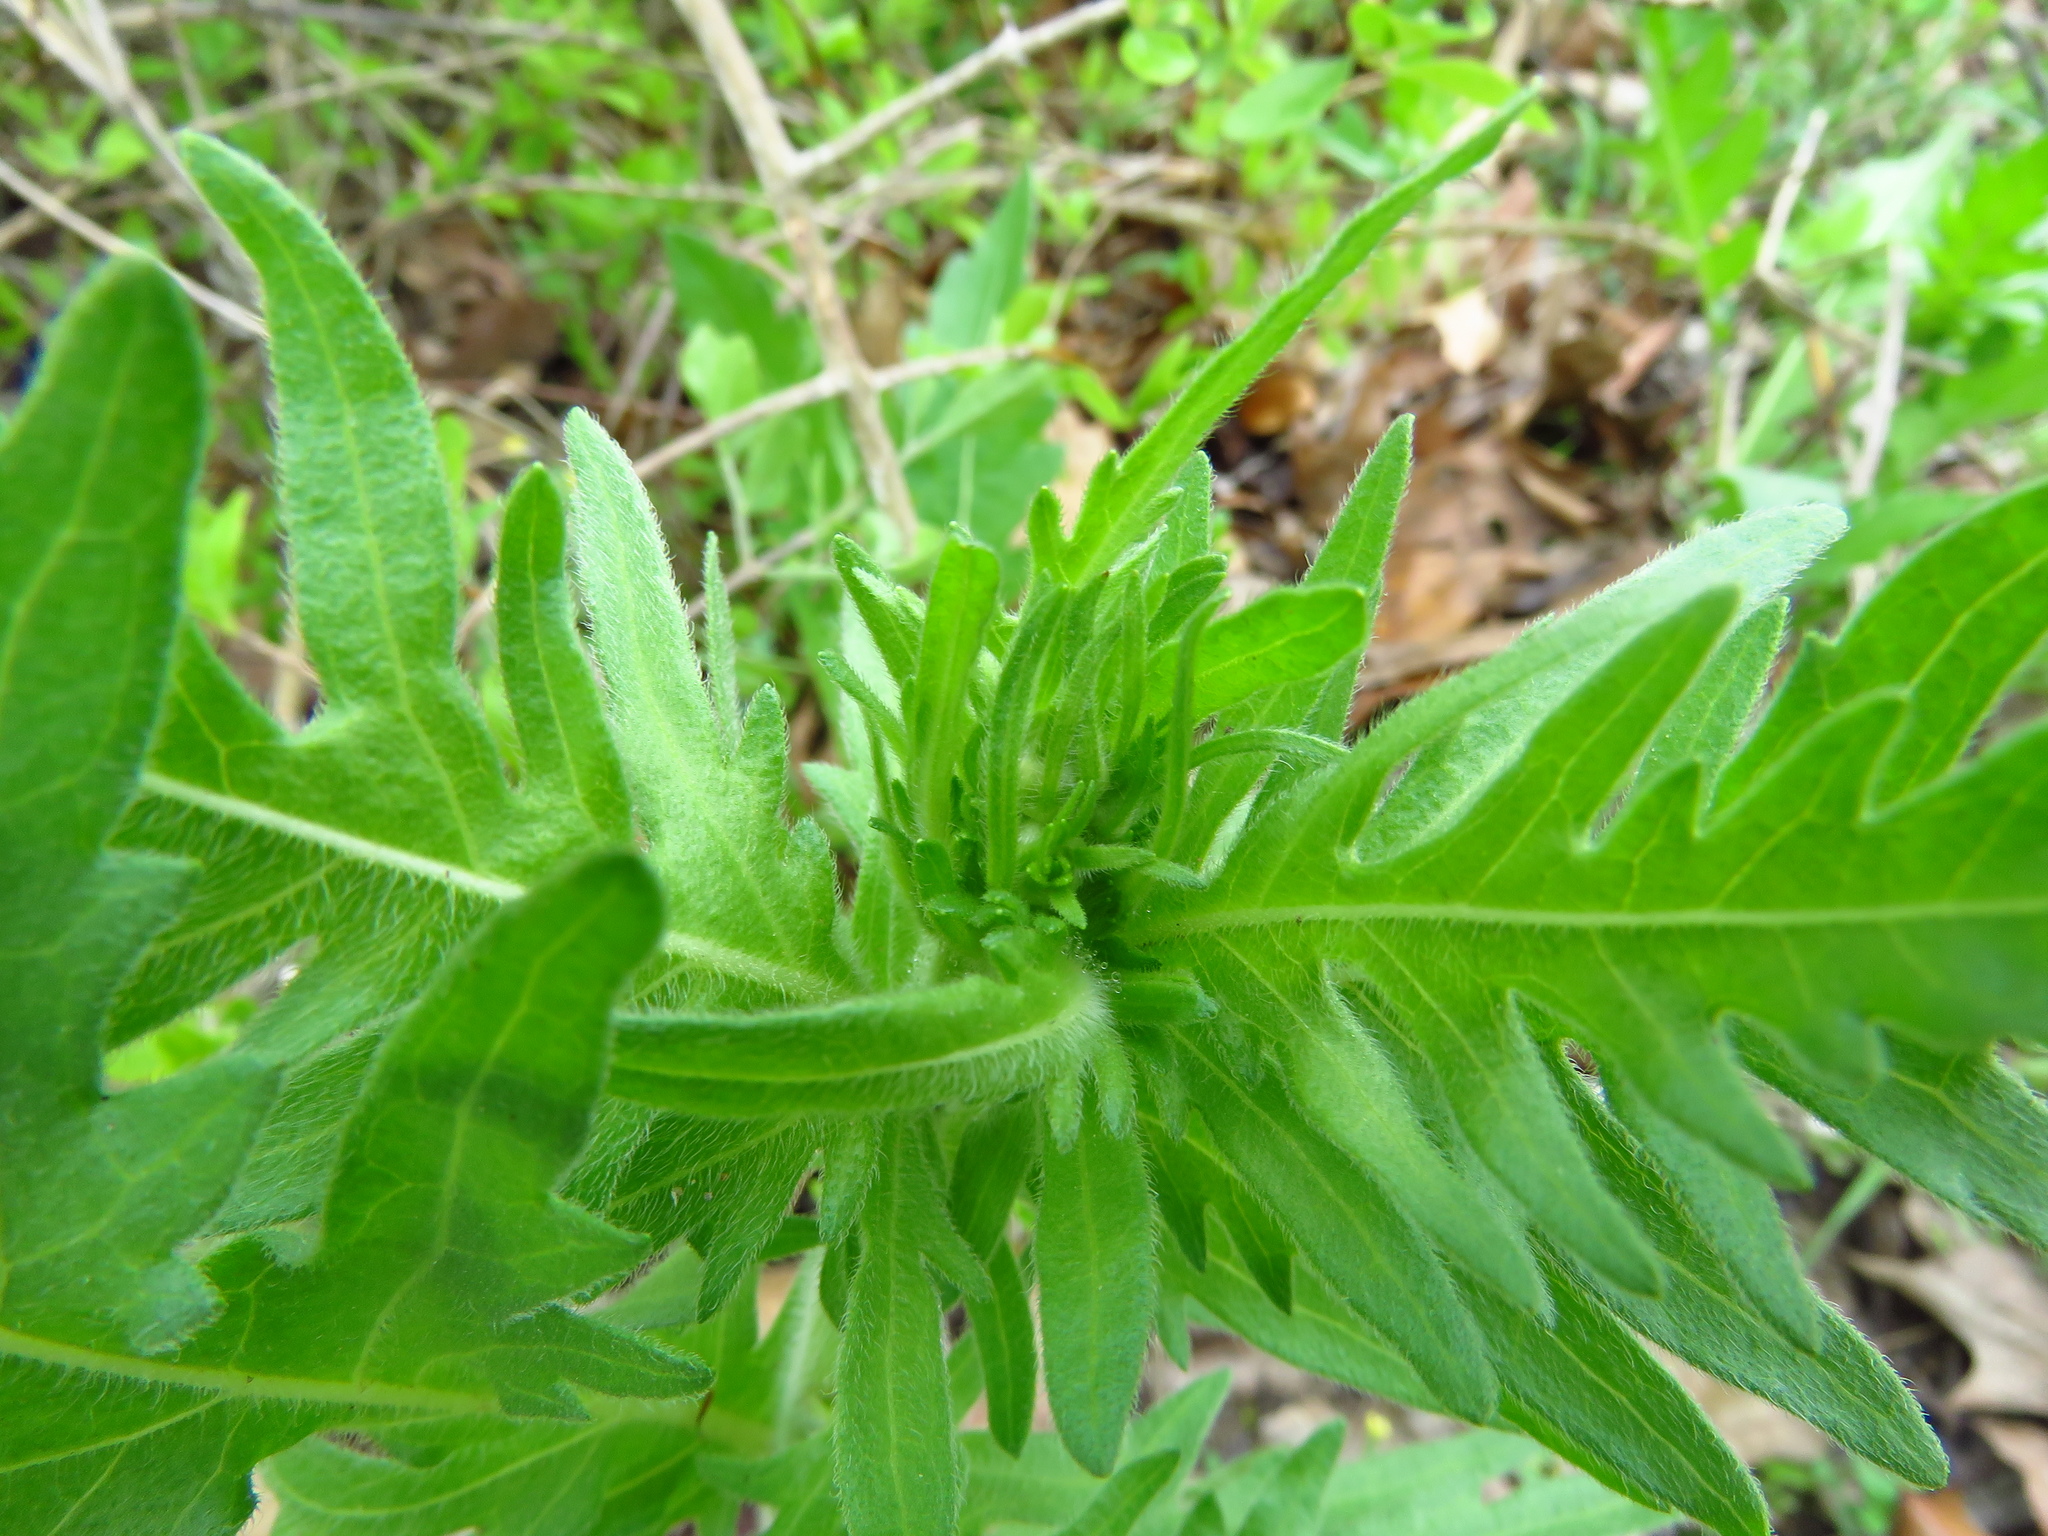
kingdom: Plantae
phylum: Tracheophyta
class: Magnoliopsida
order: Asterales
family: Asteraceae
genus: Engelmannia
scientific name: Engelmannia peristenia
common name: Engelmann's daisy
